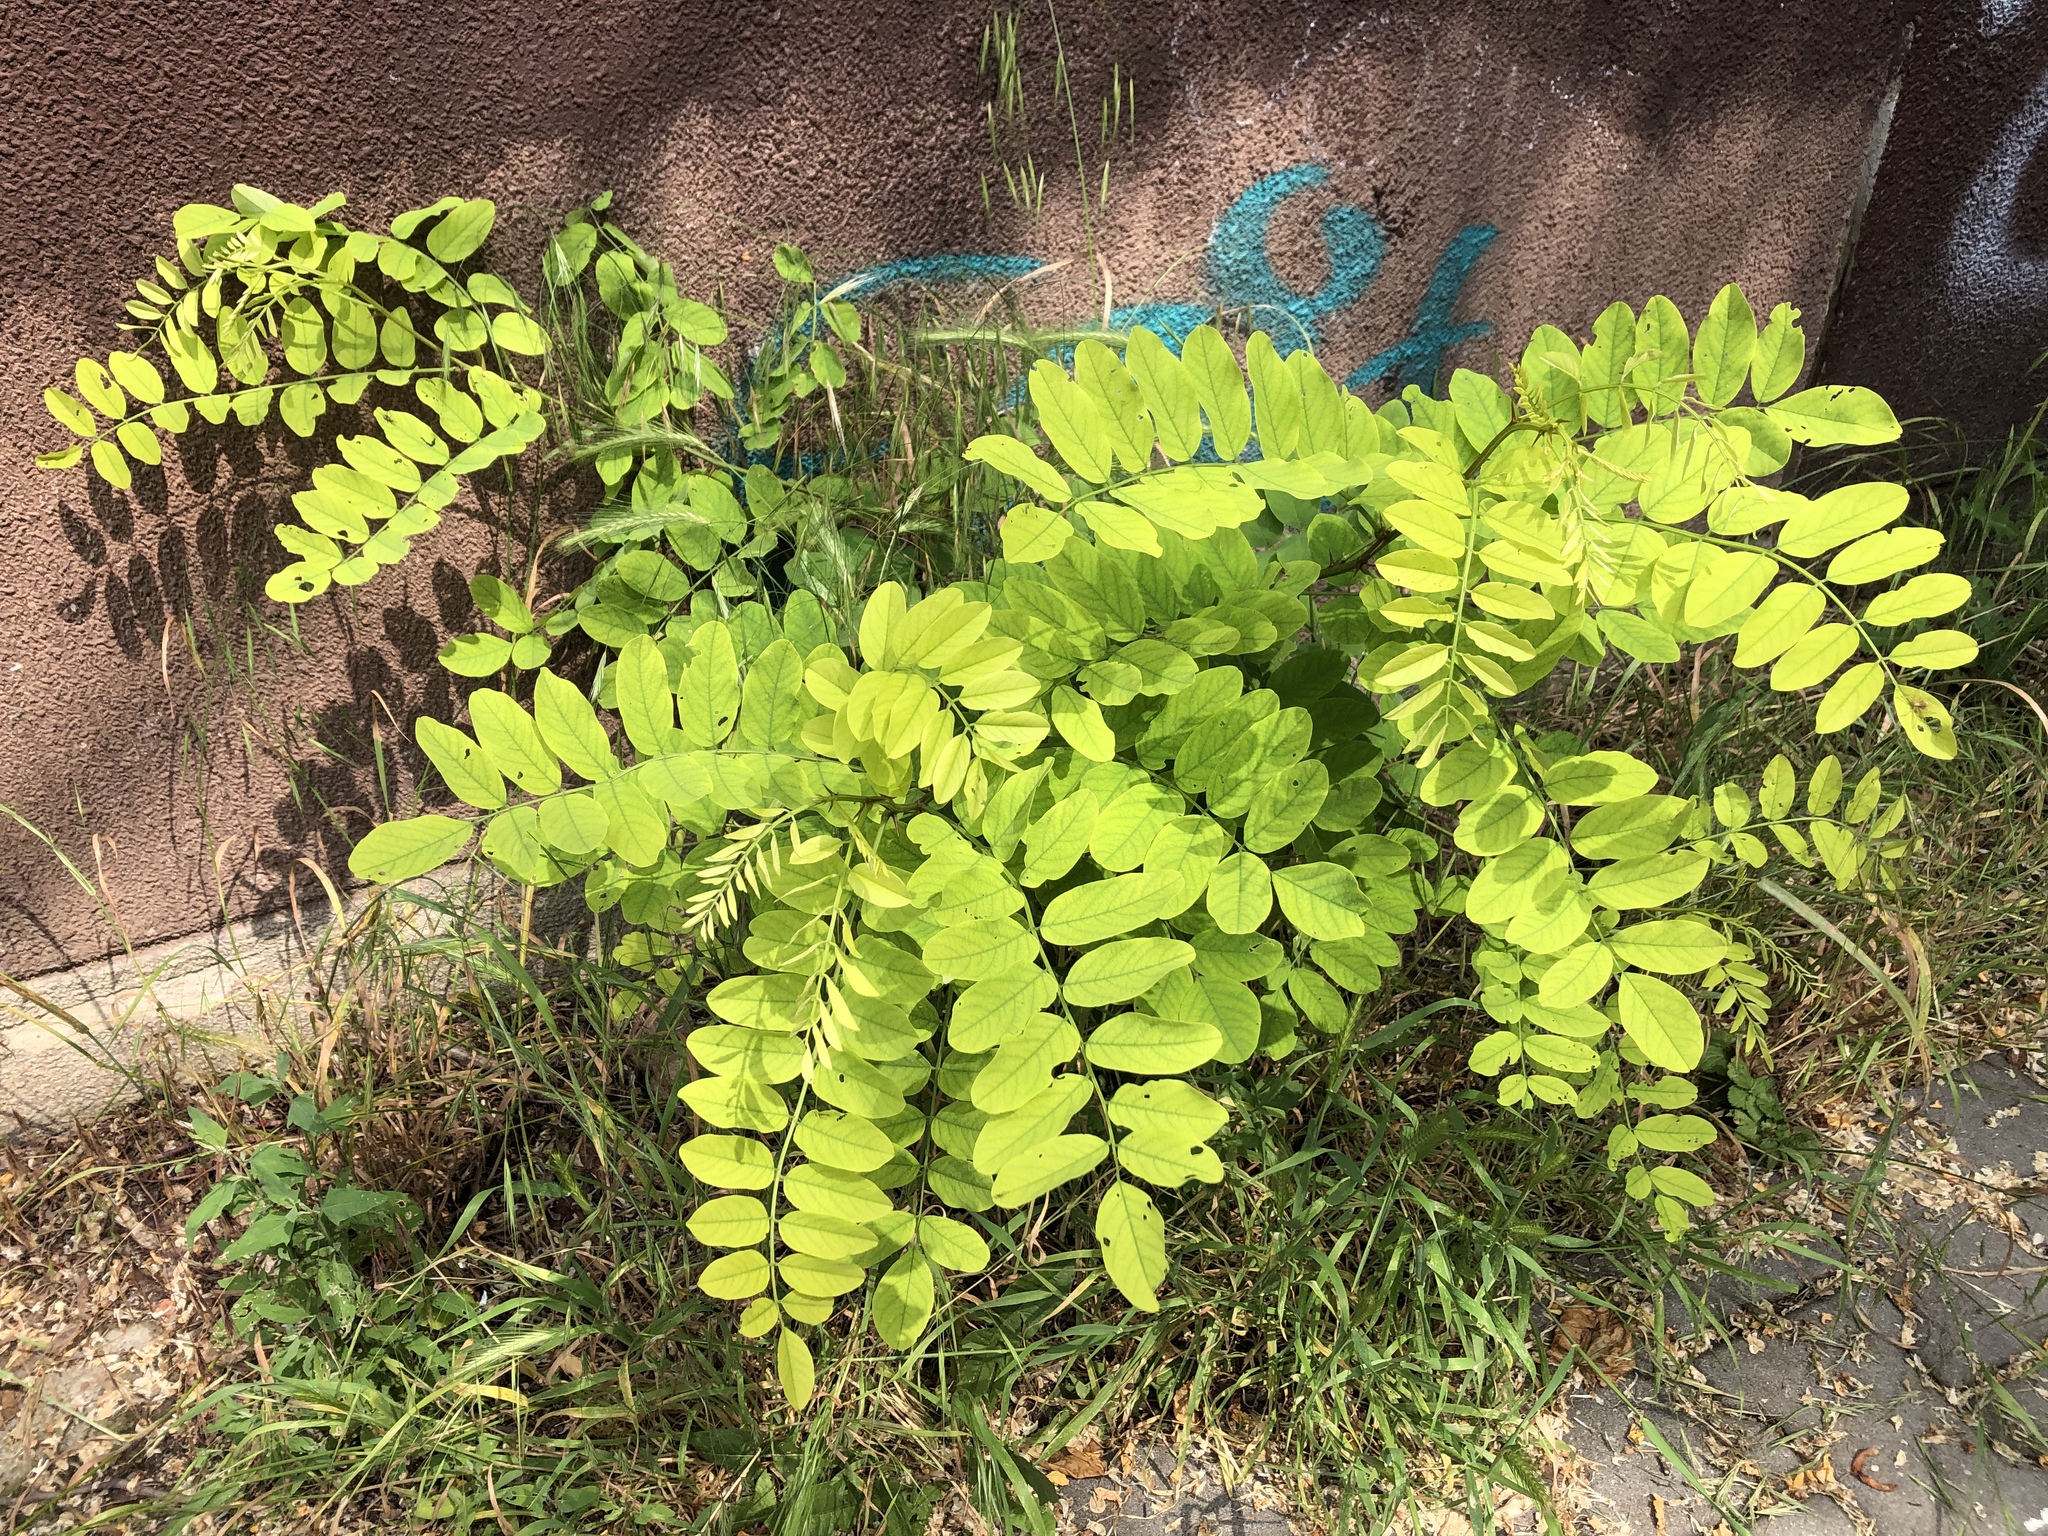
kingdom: Plantae
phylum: Tracheophyta
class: Magnoliopsida
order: Fabales
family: Fabaceae
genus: Robinia
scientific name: Robinia pseudoacacia
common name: Black locust
